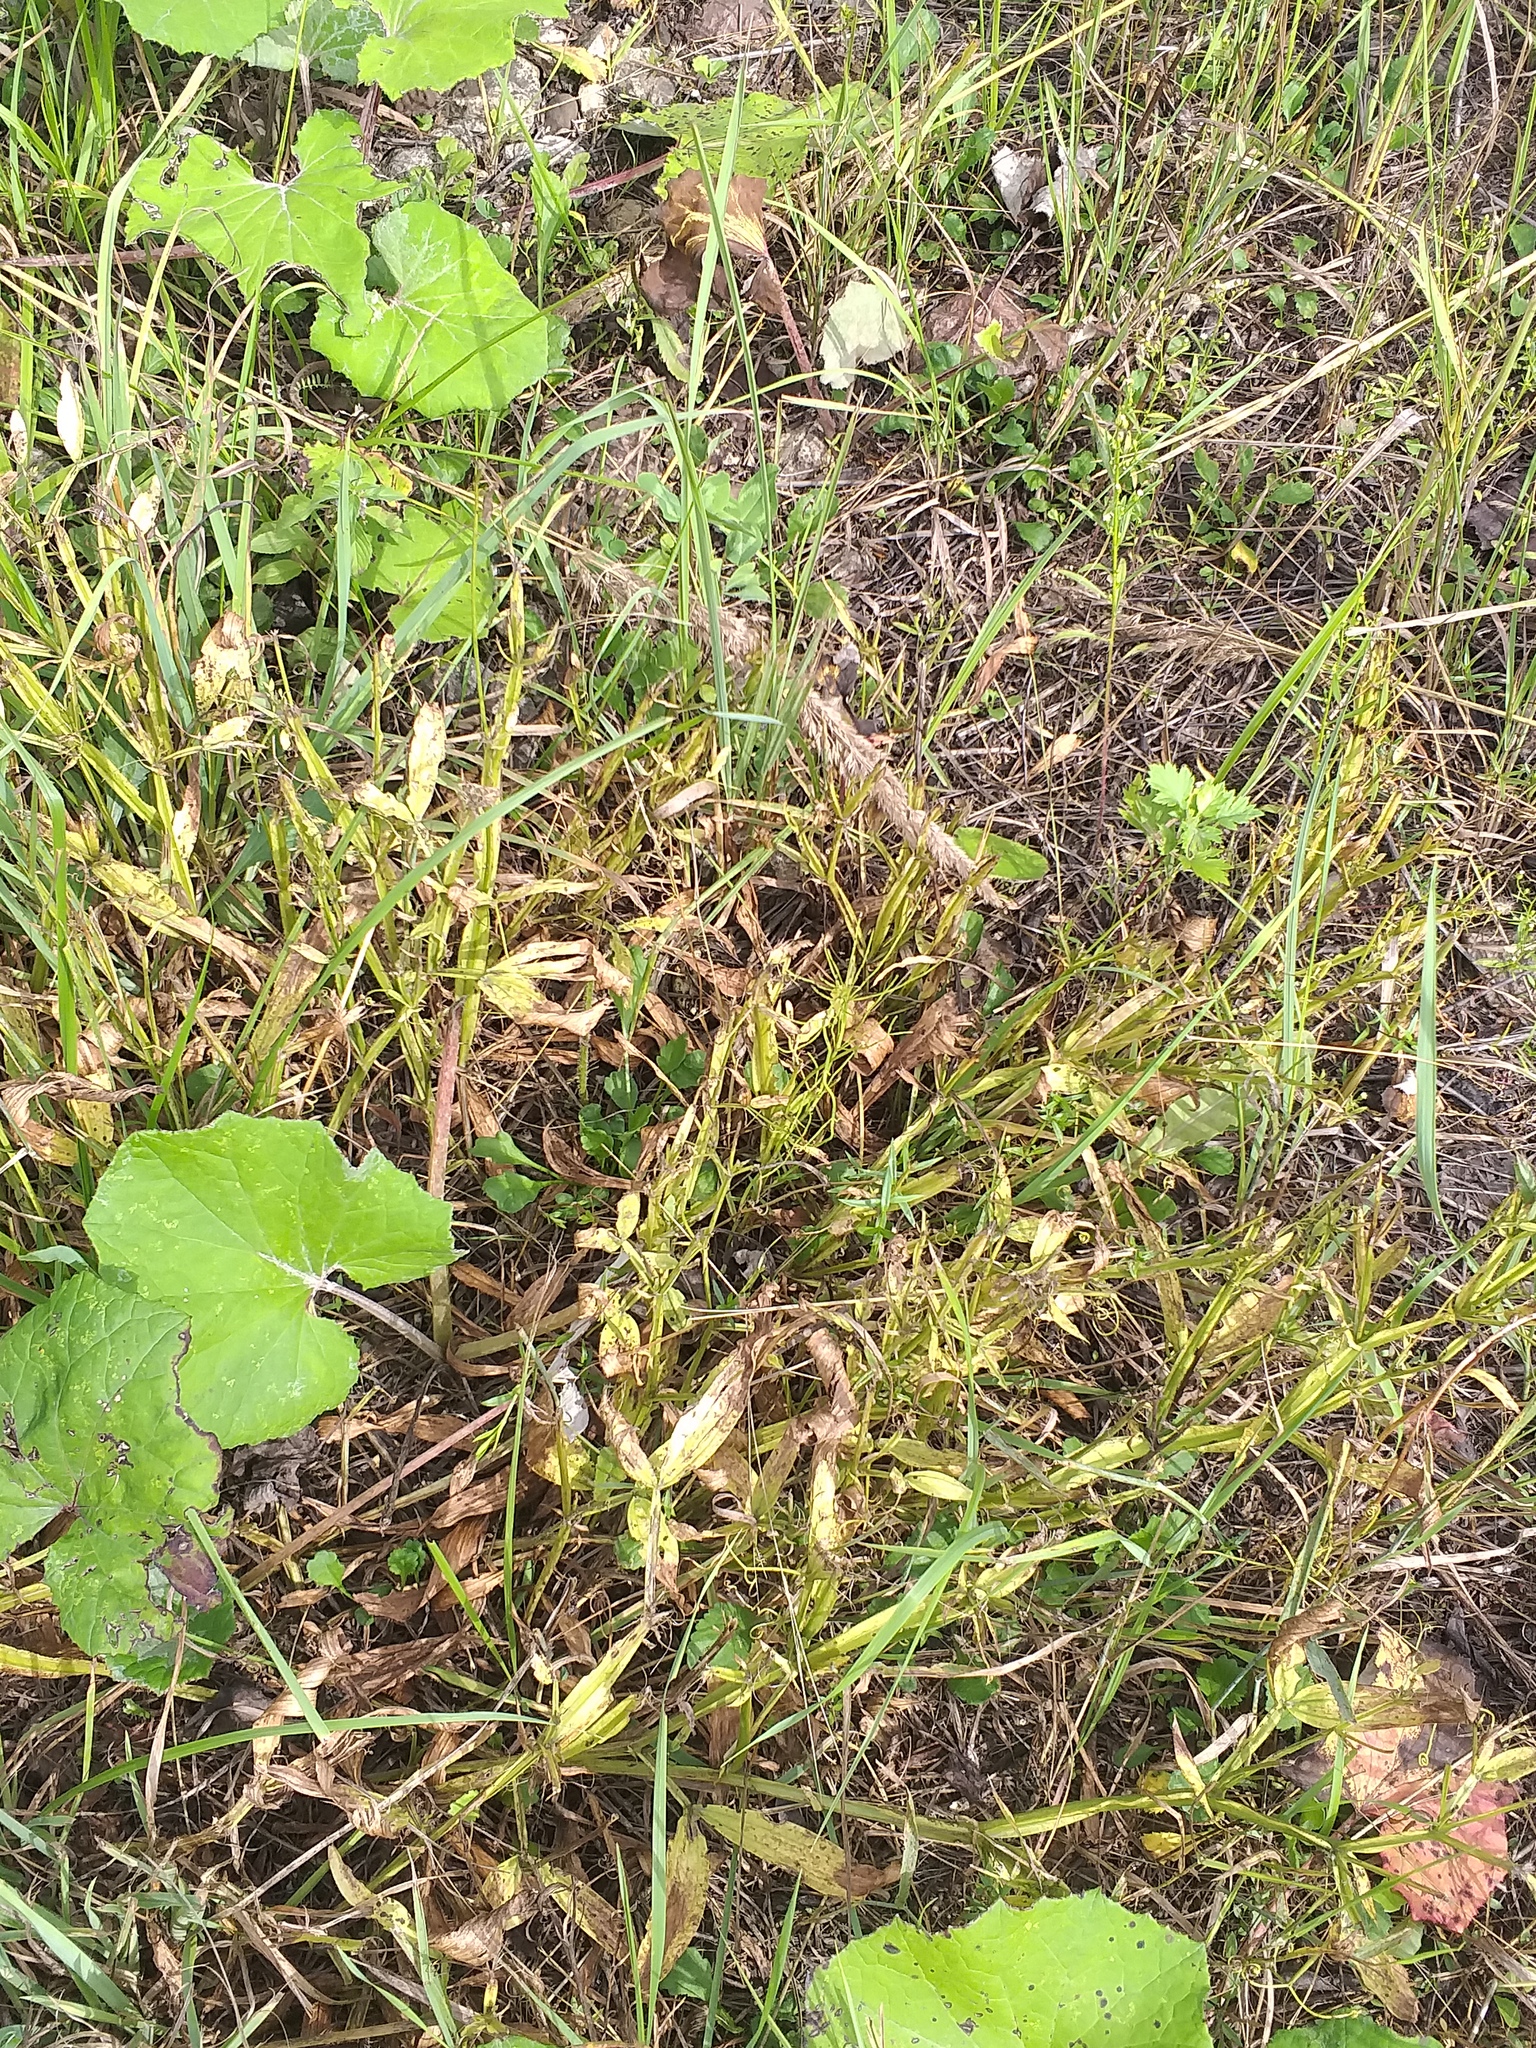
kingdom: Plantae
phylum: Tracheophyta
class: Magnoliopsida
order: Fabales
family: Fabaceae
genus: Lathyrus
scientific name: Lathyrus sylvestris
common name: Flat pea
